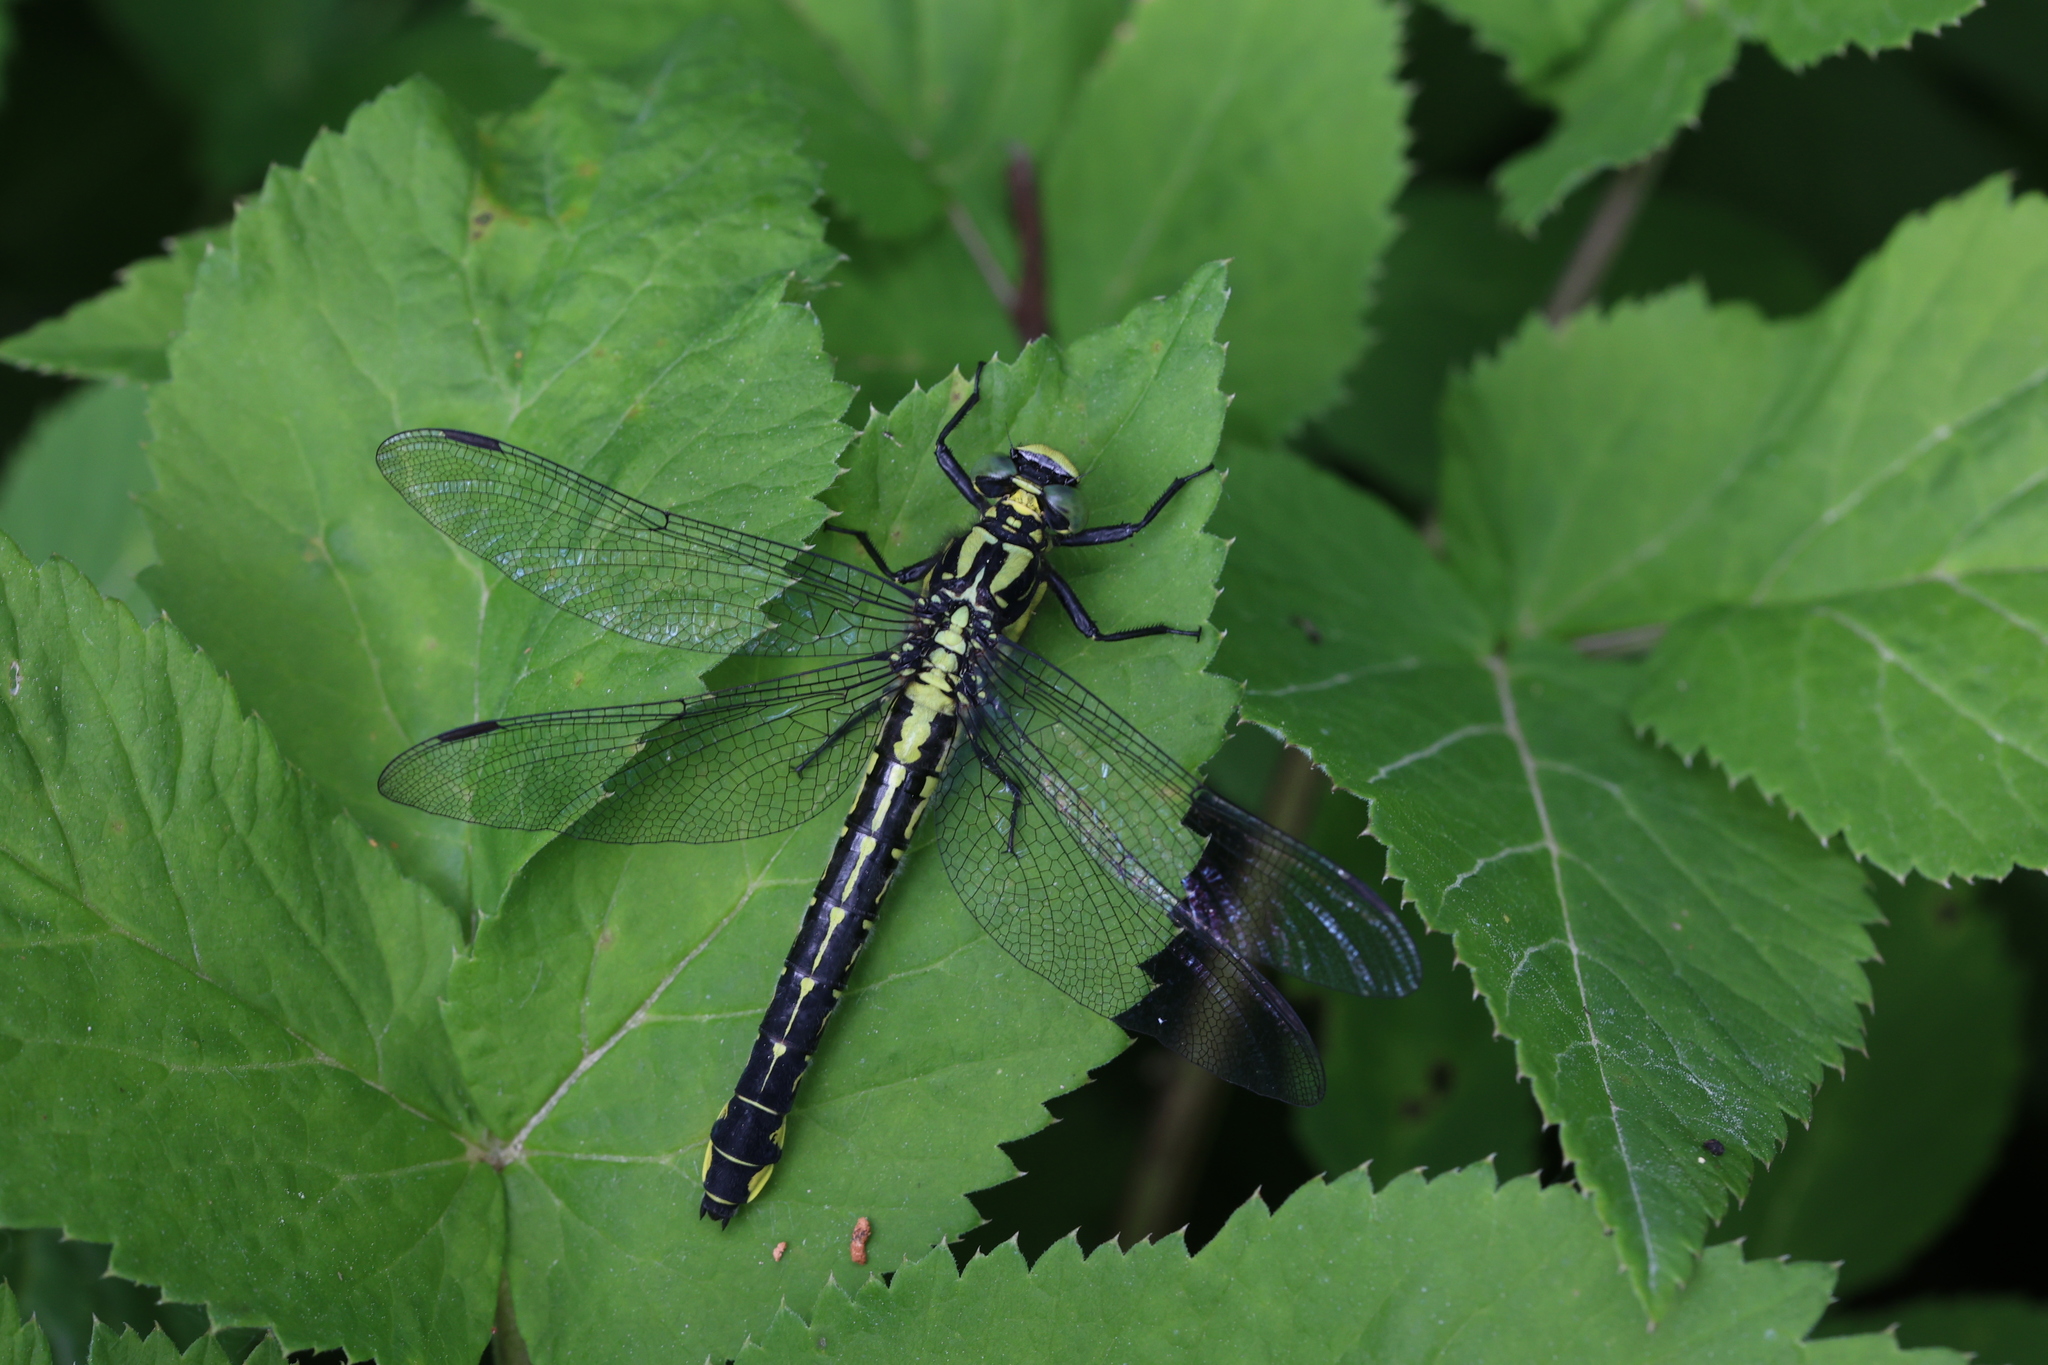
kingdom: Animalia
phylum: Arthropoda
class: Insecta
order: Odonata
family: Gomphidae
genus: Gomphus
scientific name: Gomphus vulgatissimus
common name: Club-tailed dragonfly
